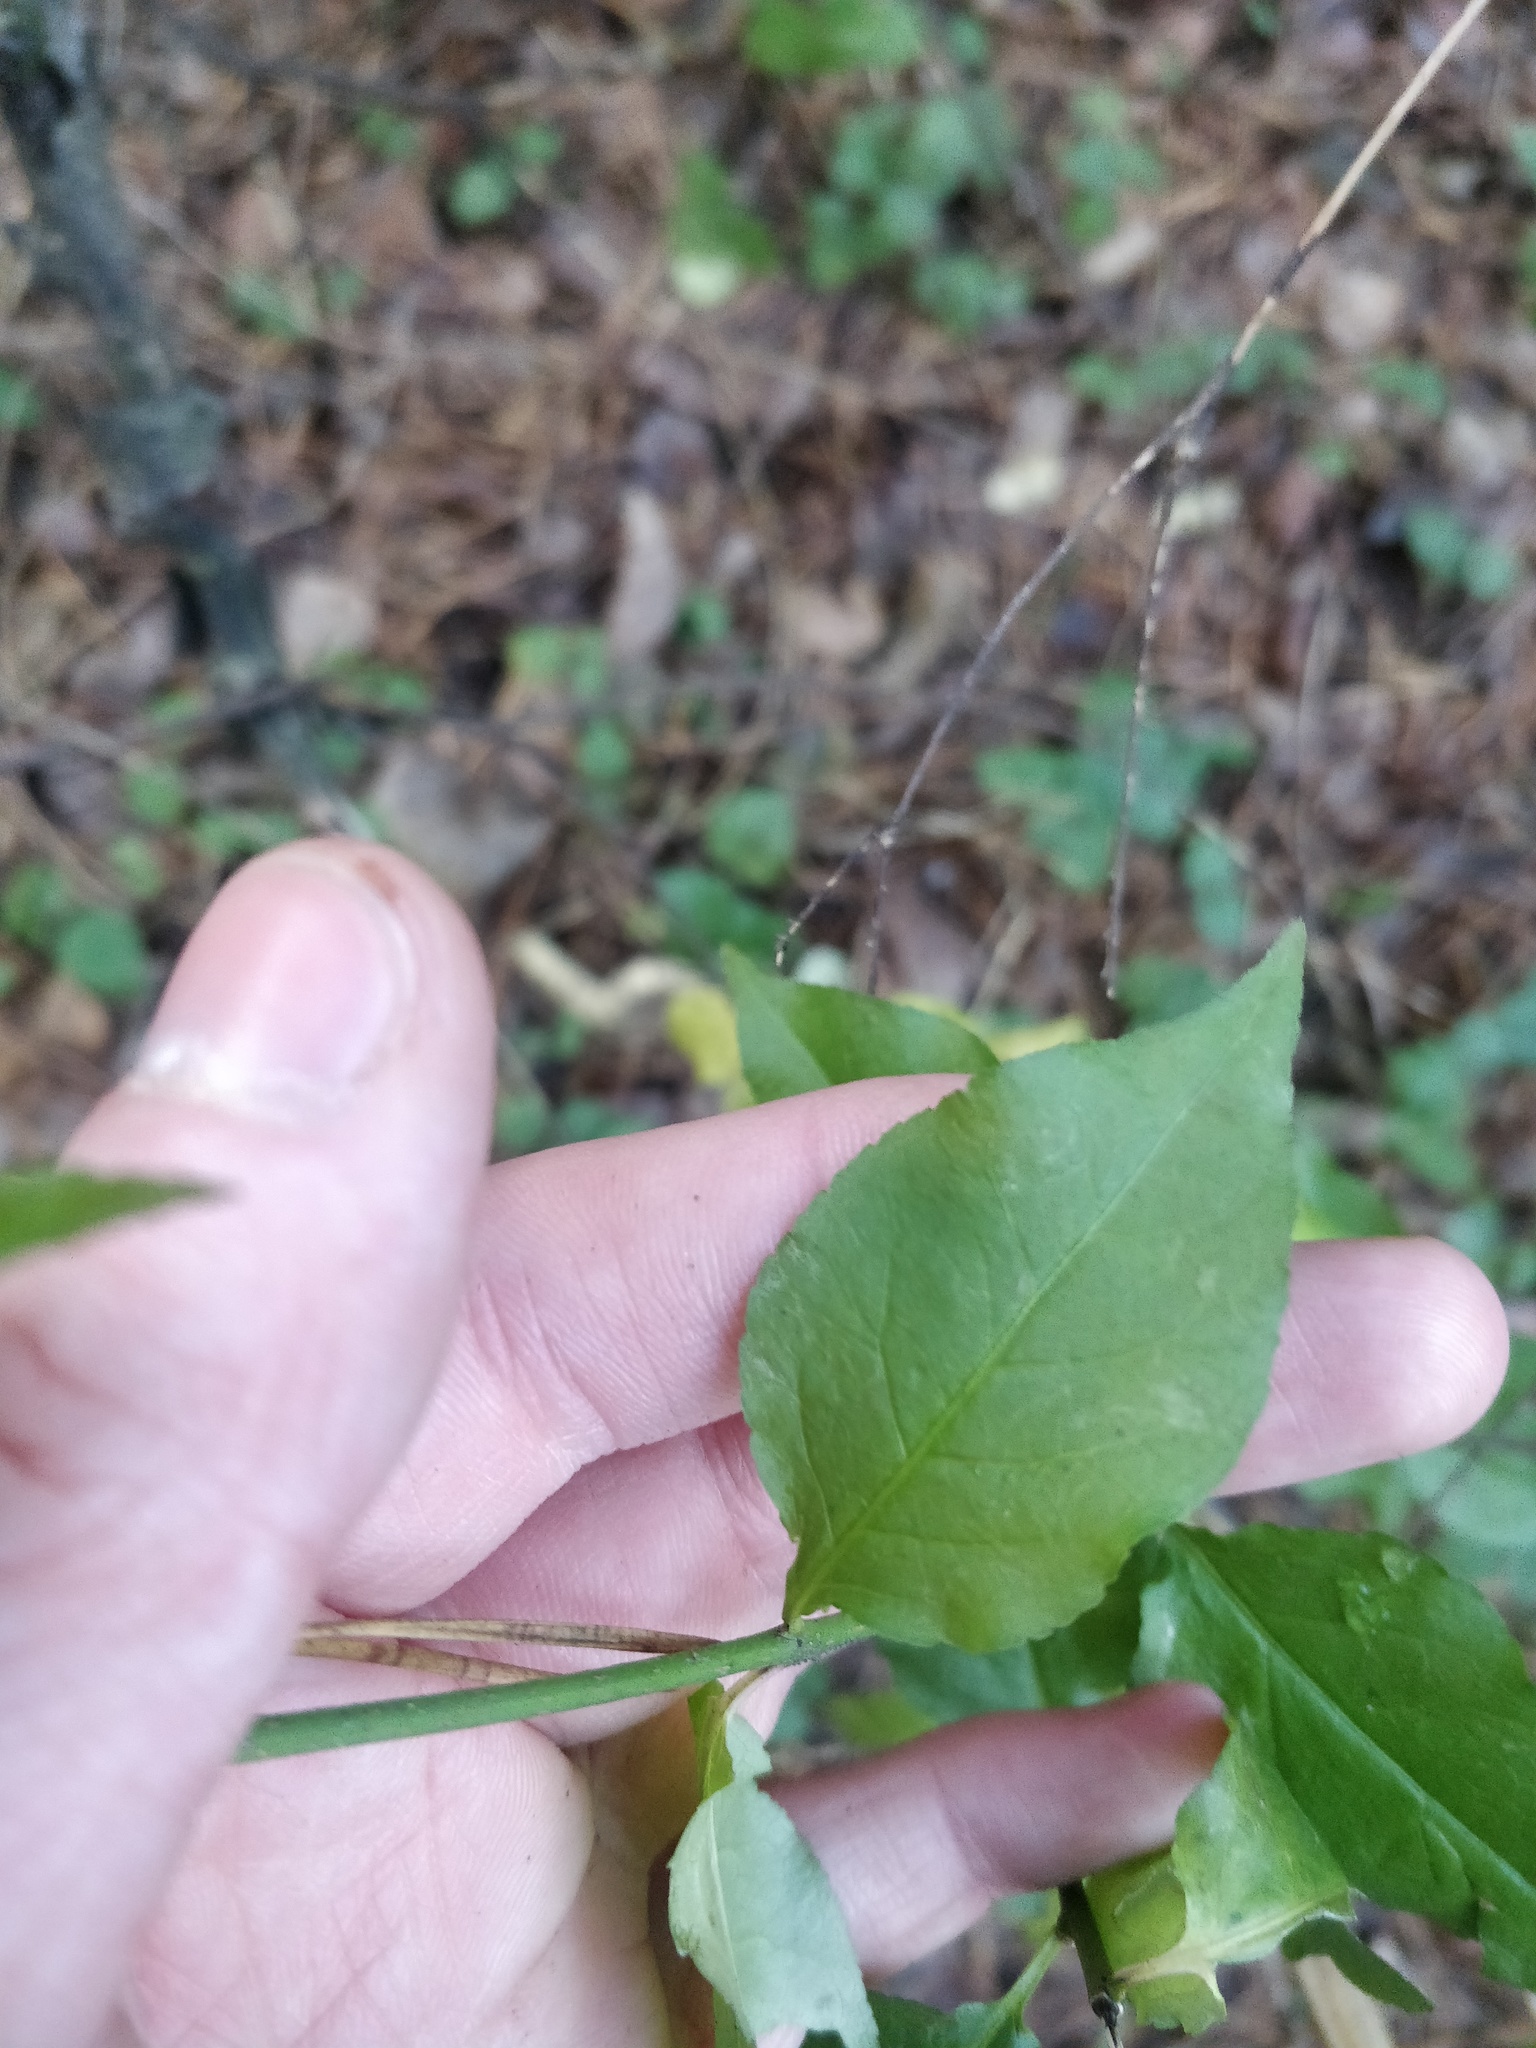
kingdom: Plantae
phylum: Tracheophyta
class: Magnoliopsida
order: Celastrales
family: Celastraceae
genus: Euonymus
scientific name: Euonymus europaeus
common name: Spindle
